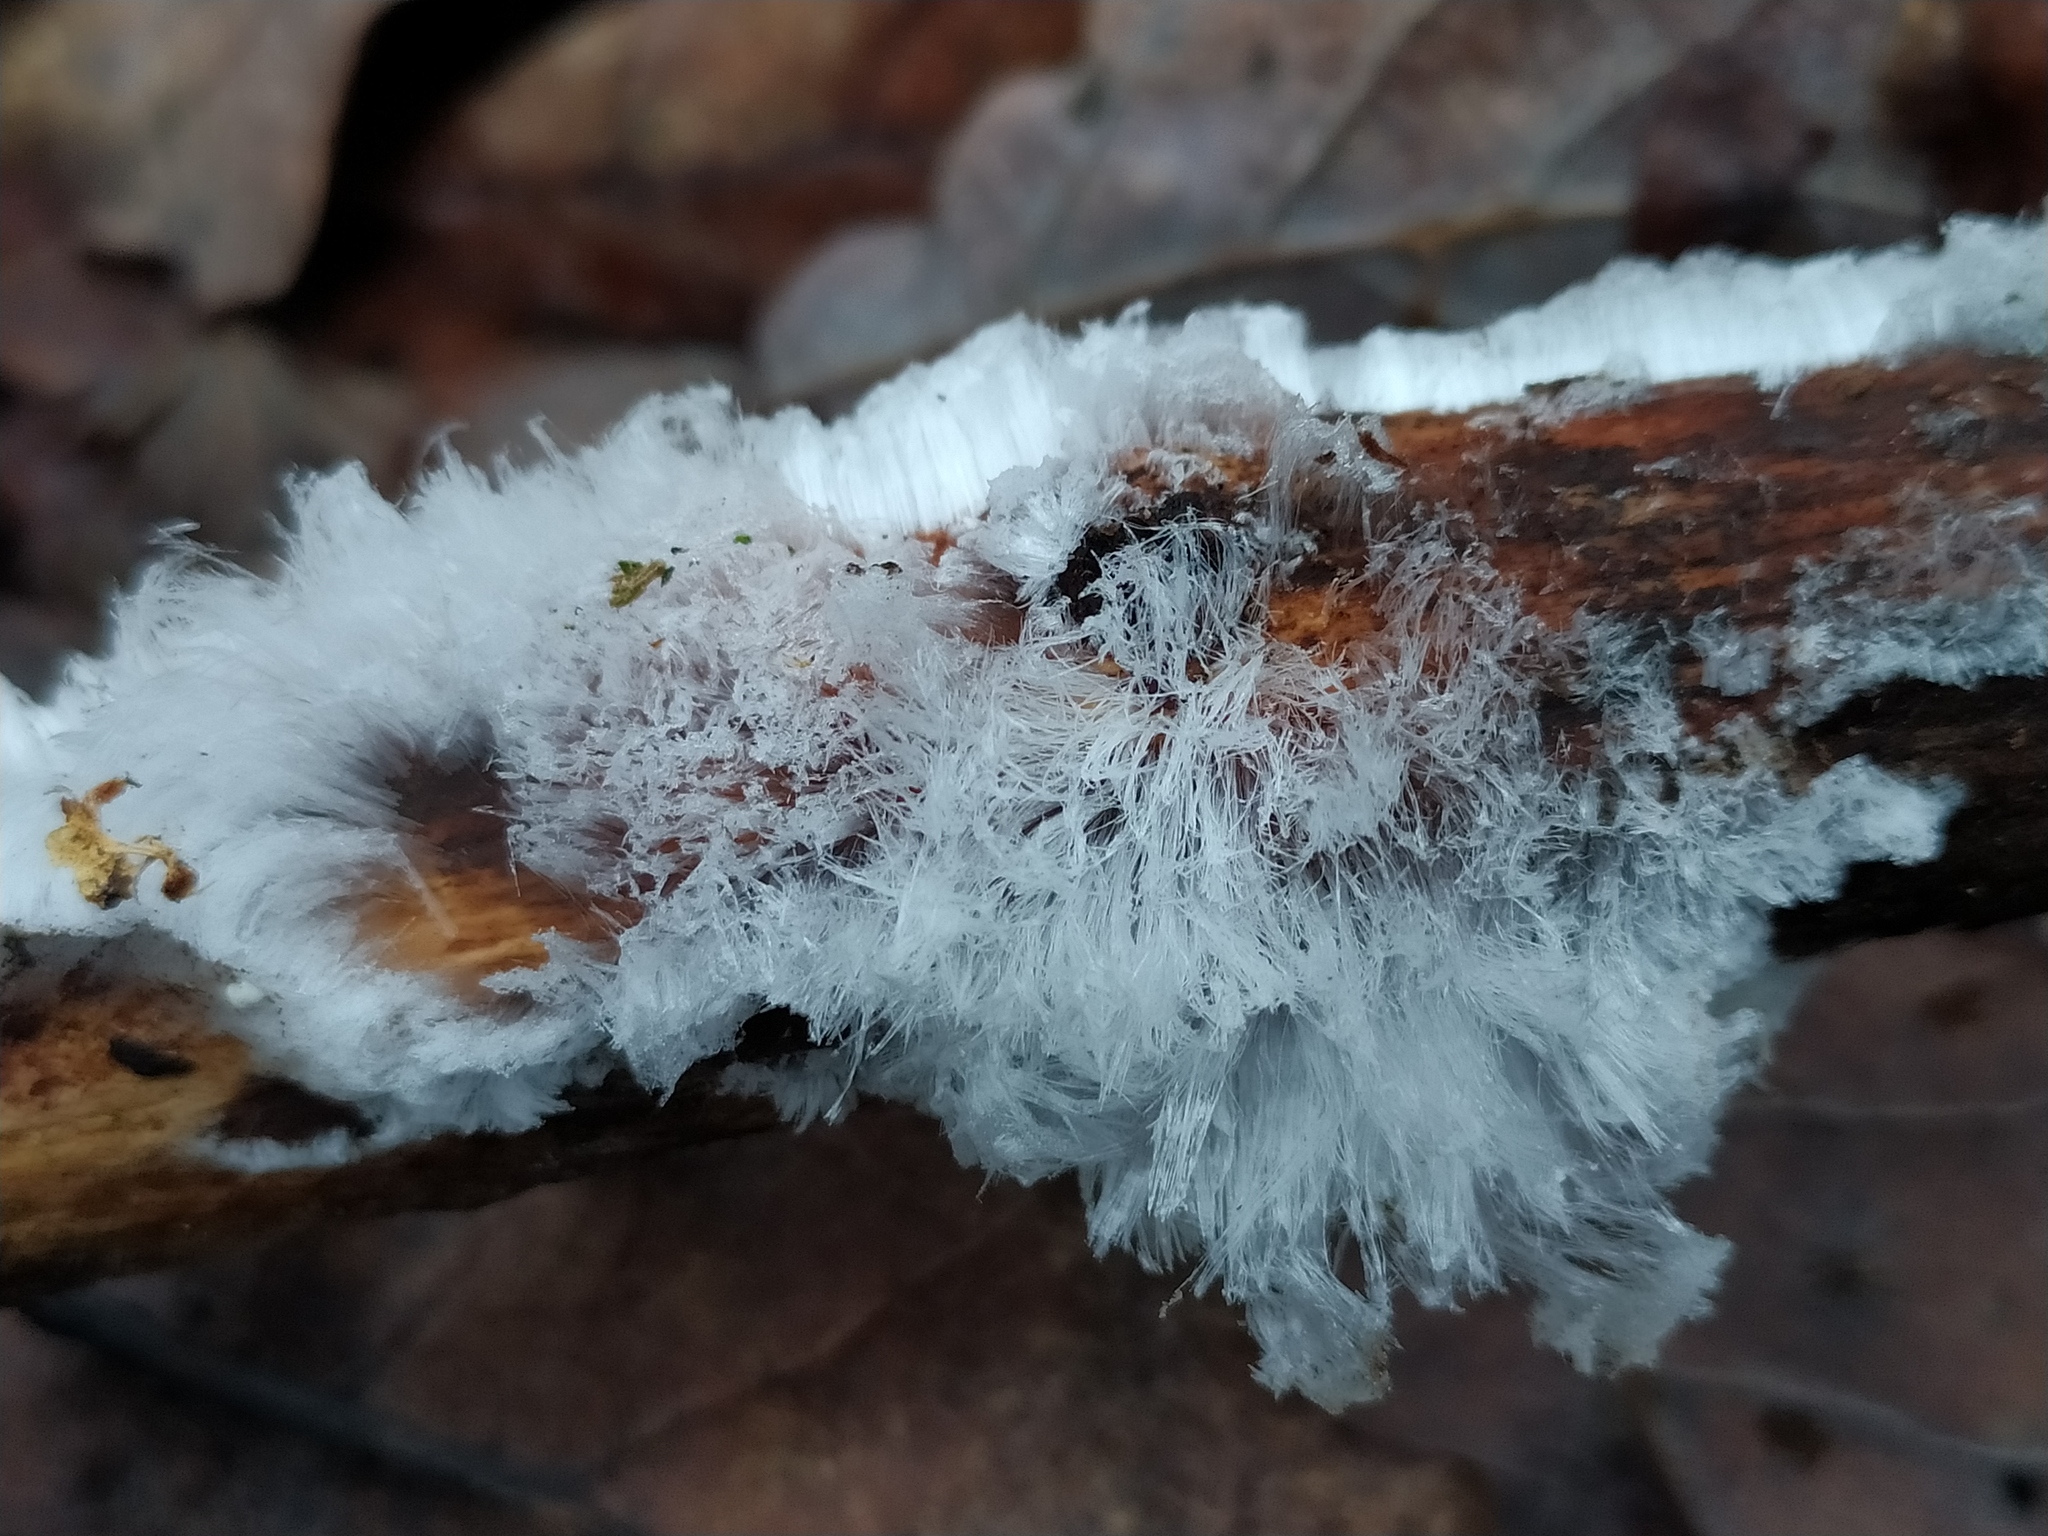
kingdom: Fungi
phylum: Basidiomycota
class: Agaricomycetes
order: Auriculariales
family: Auriculariaceae
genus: Exidiopsis
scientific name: Exidiopsis effusa
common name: Hair ice crust
